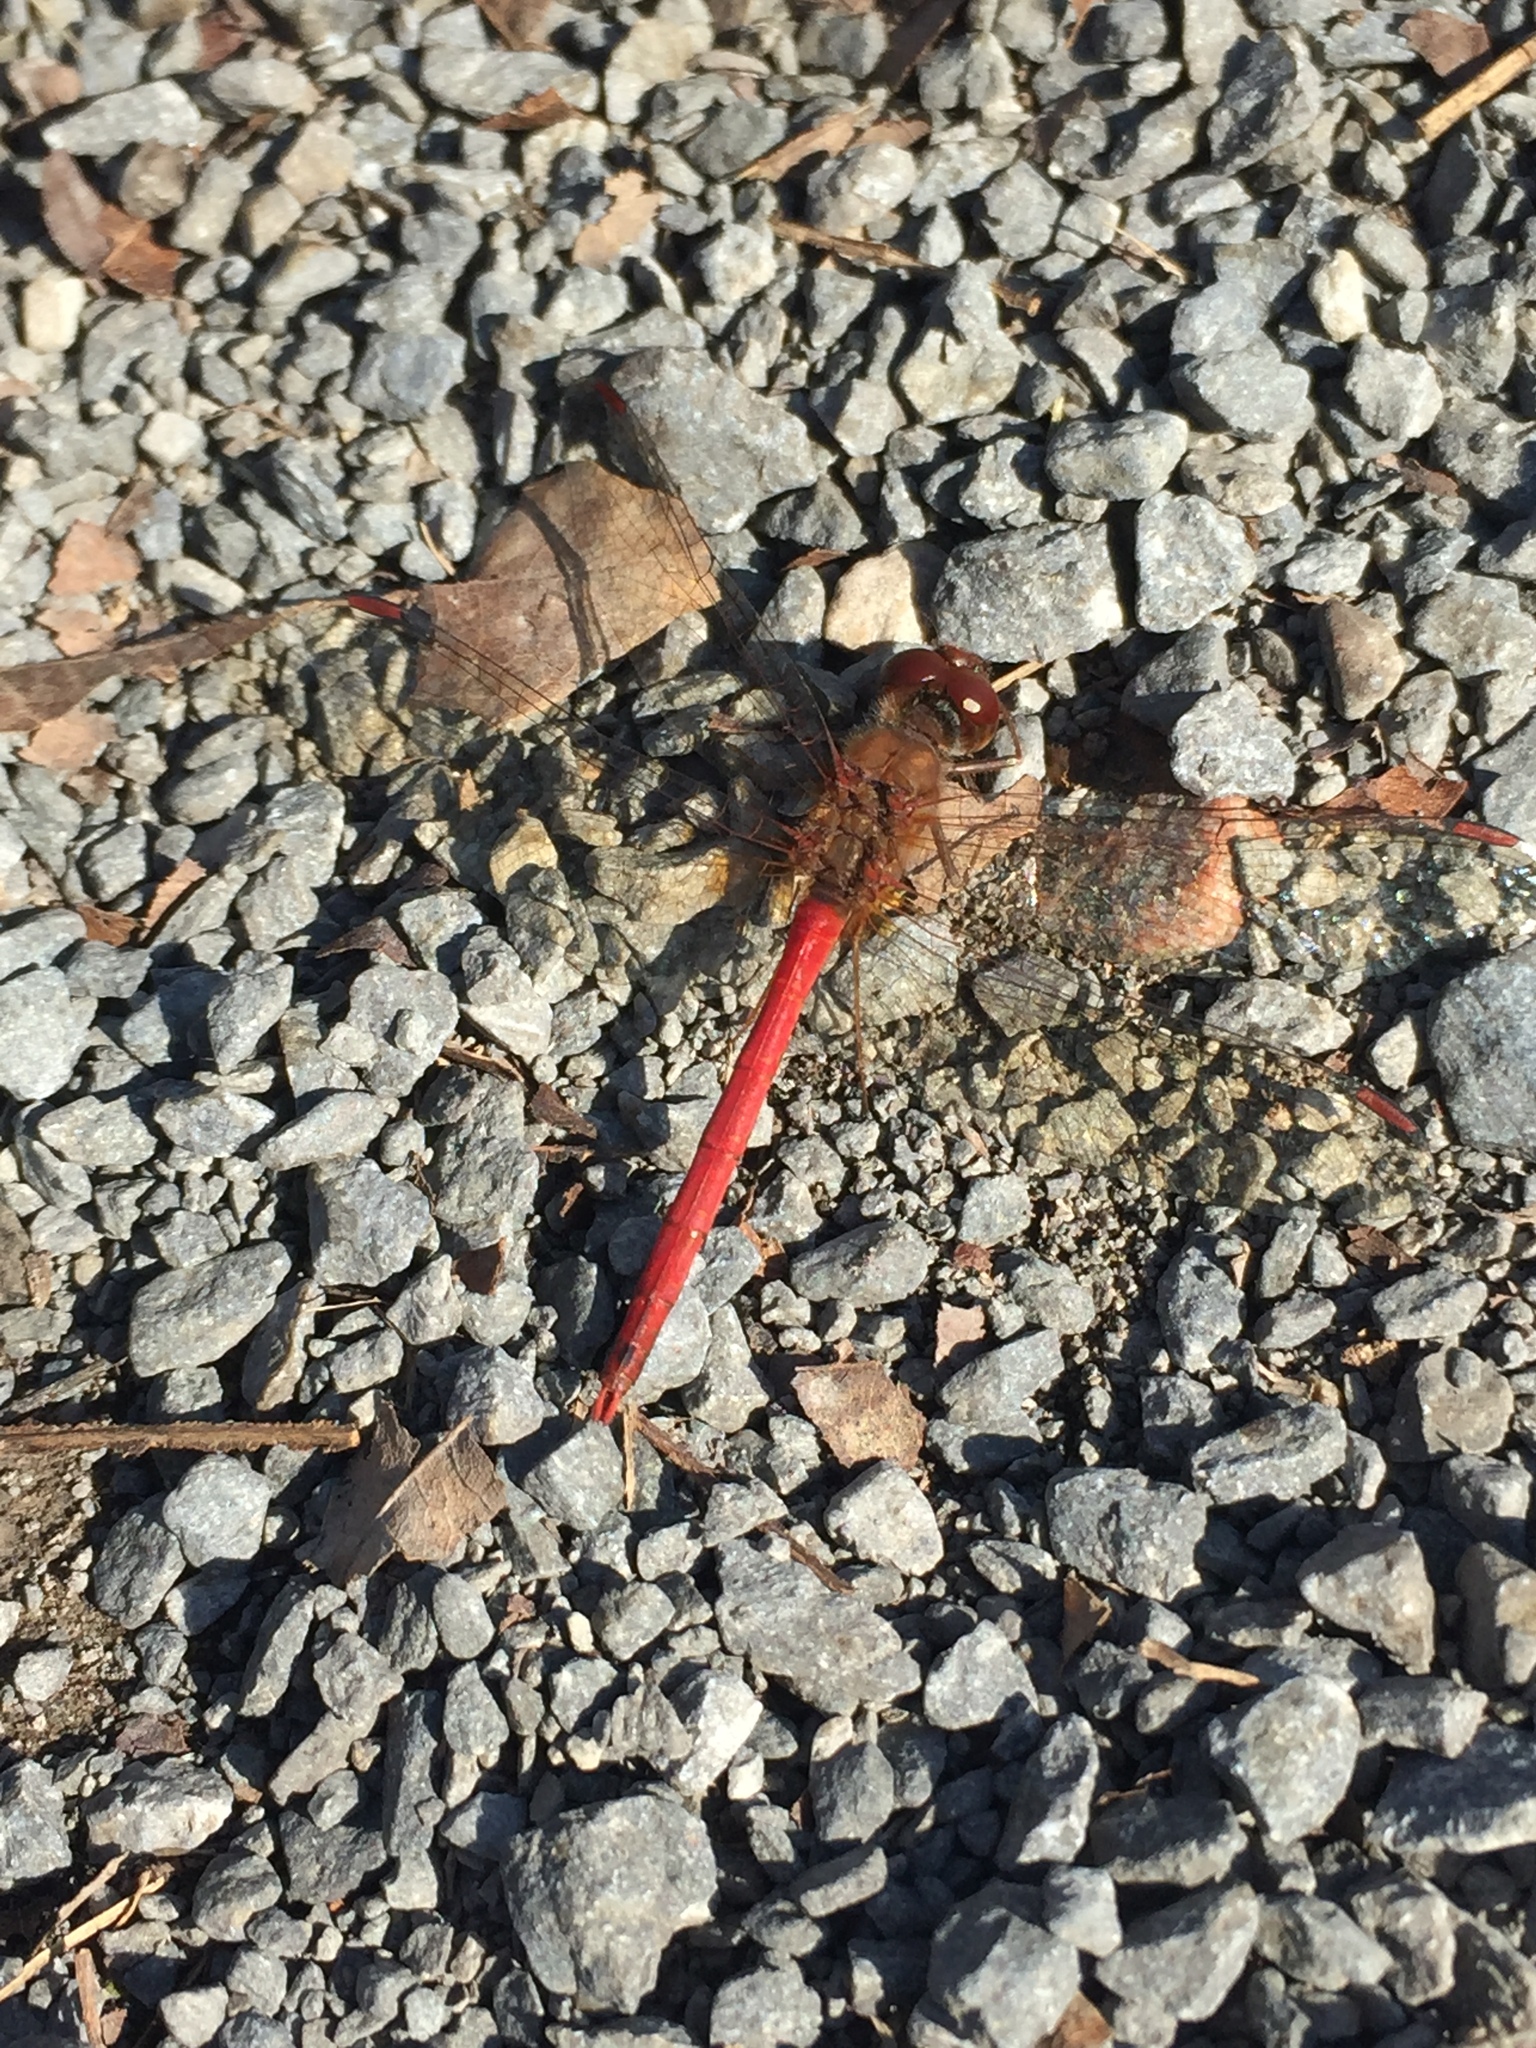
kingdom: Animalia
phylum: Arthropoda
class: Insecta
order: Odonata
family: Libellulidae
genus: Sympetrum
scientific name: Sympetrum vicinum
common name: Autumn meadowhawk
